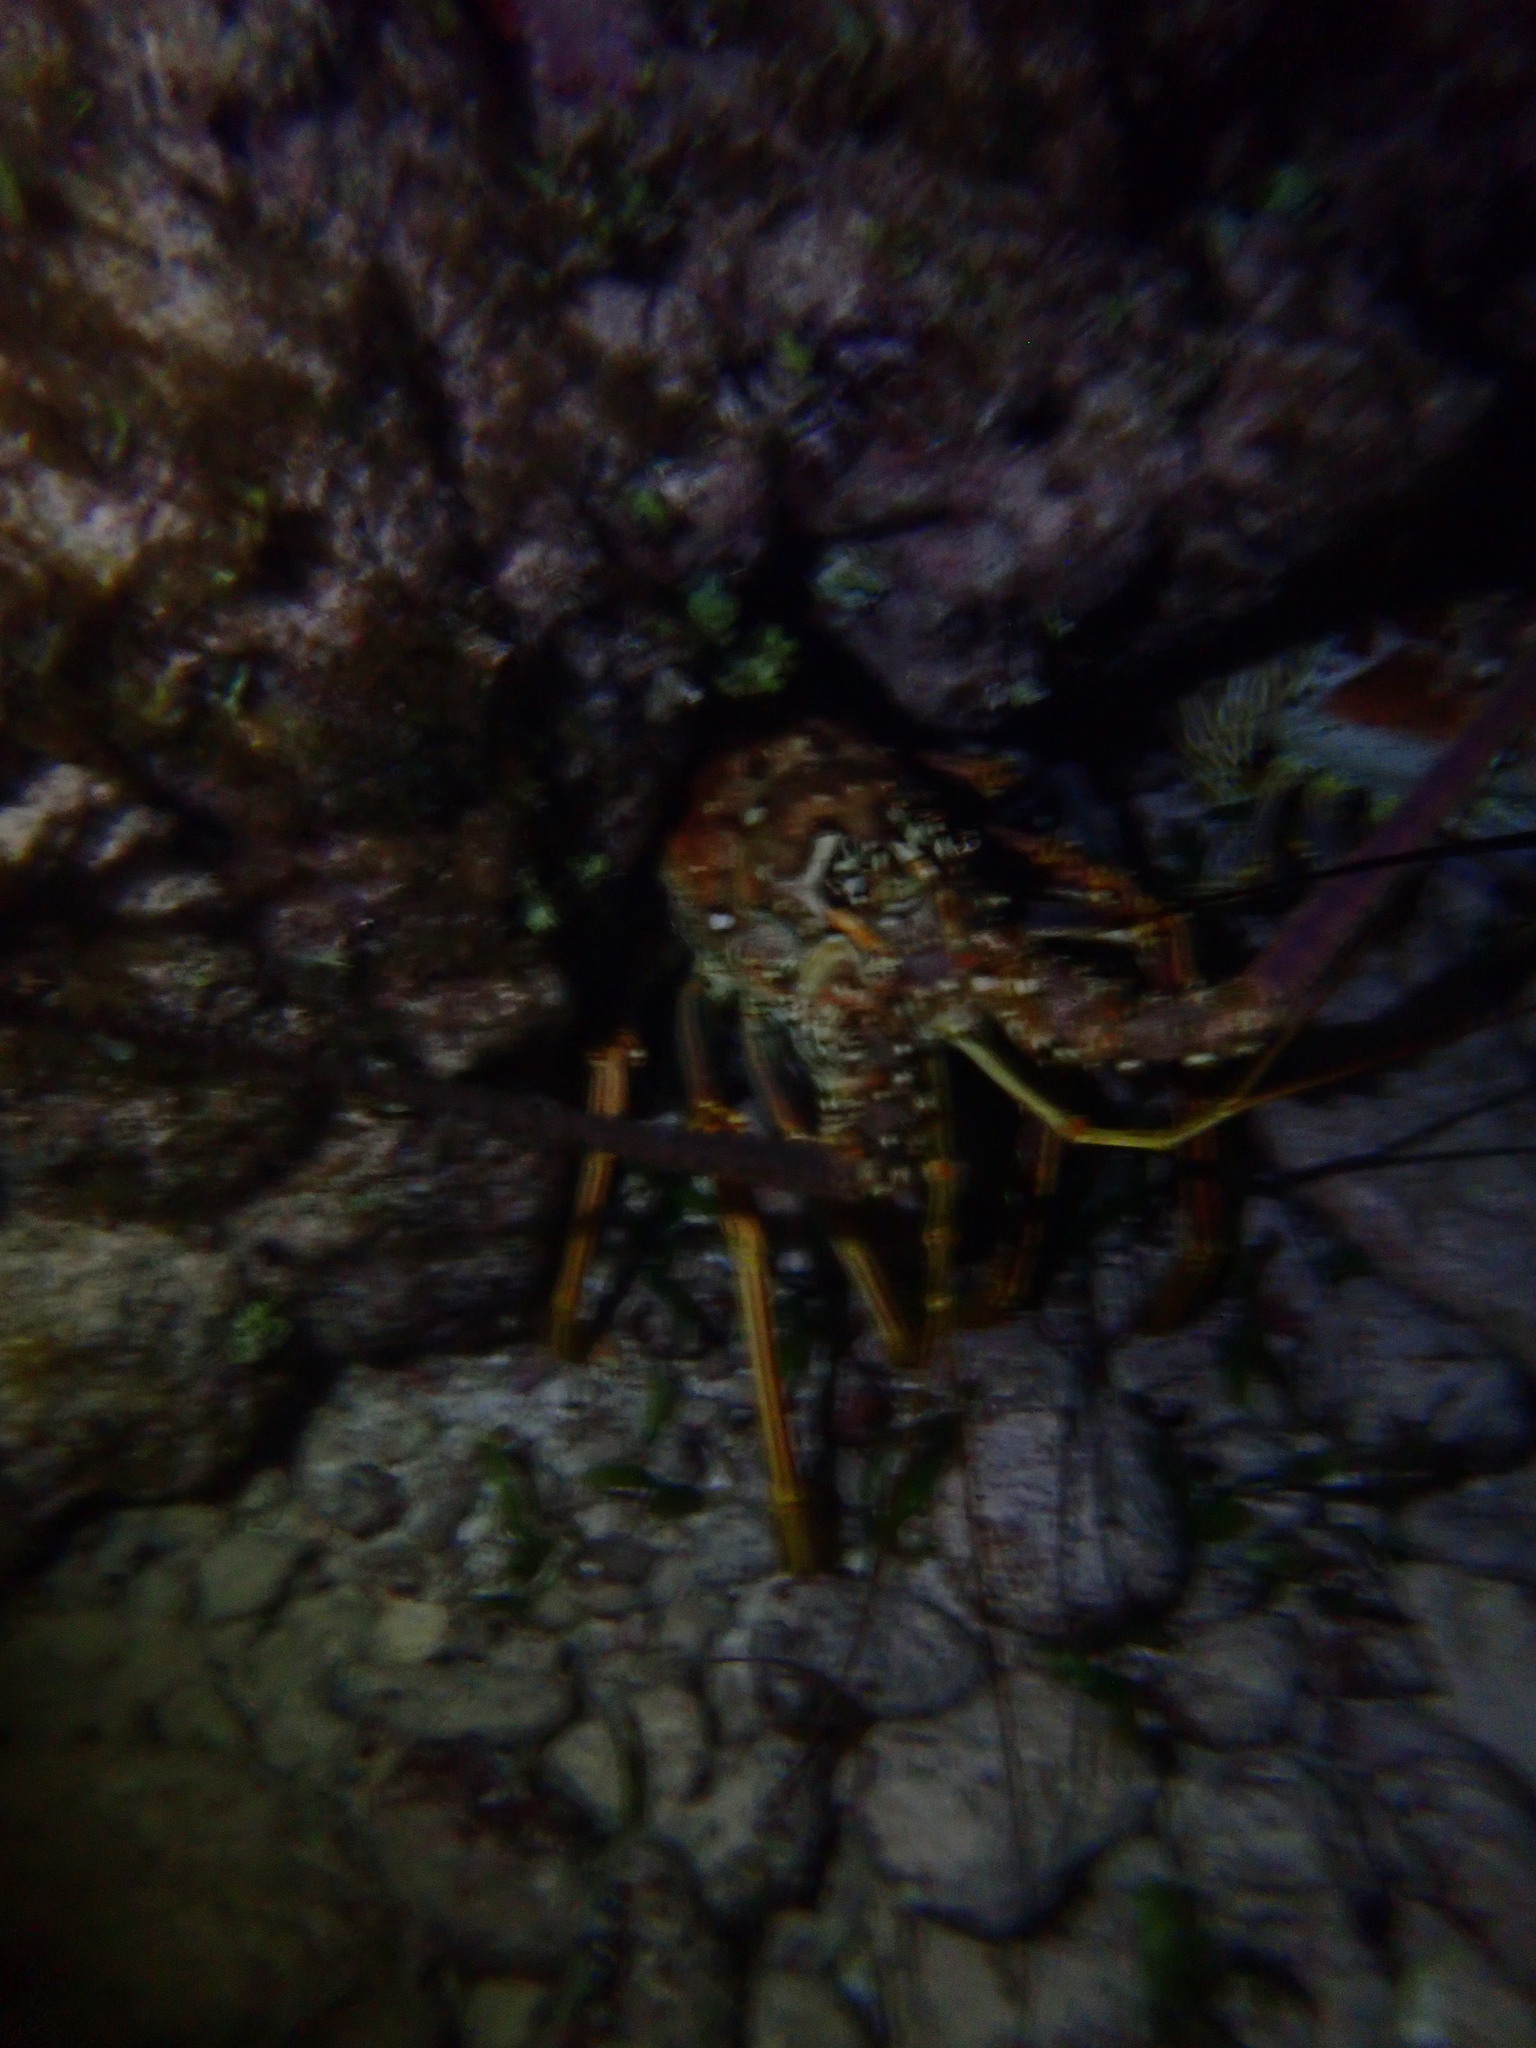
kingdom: Animalia
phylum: Arthropoda
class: Malacostraca
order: Decapoda
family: Palinuridae
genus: Panulirus
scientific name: Panulirus argus
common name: Caribbean spiny lobster
